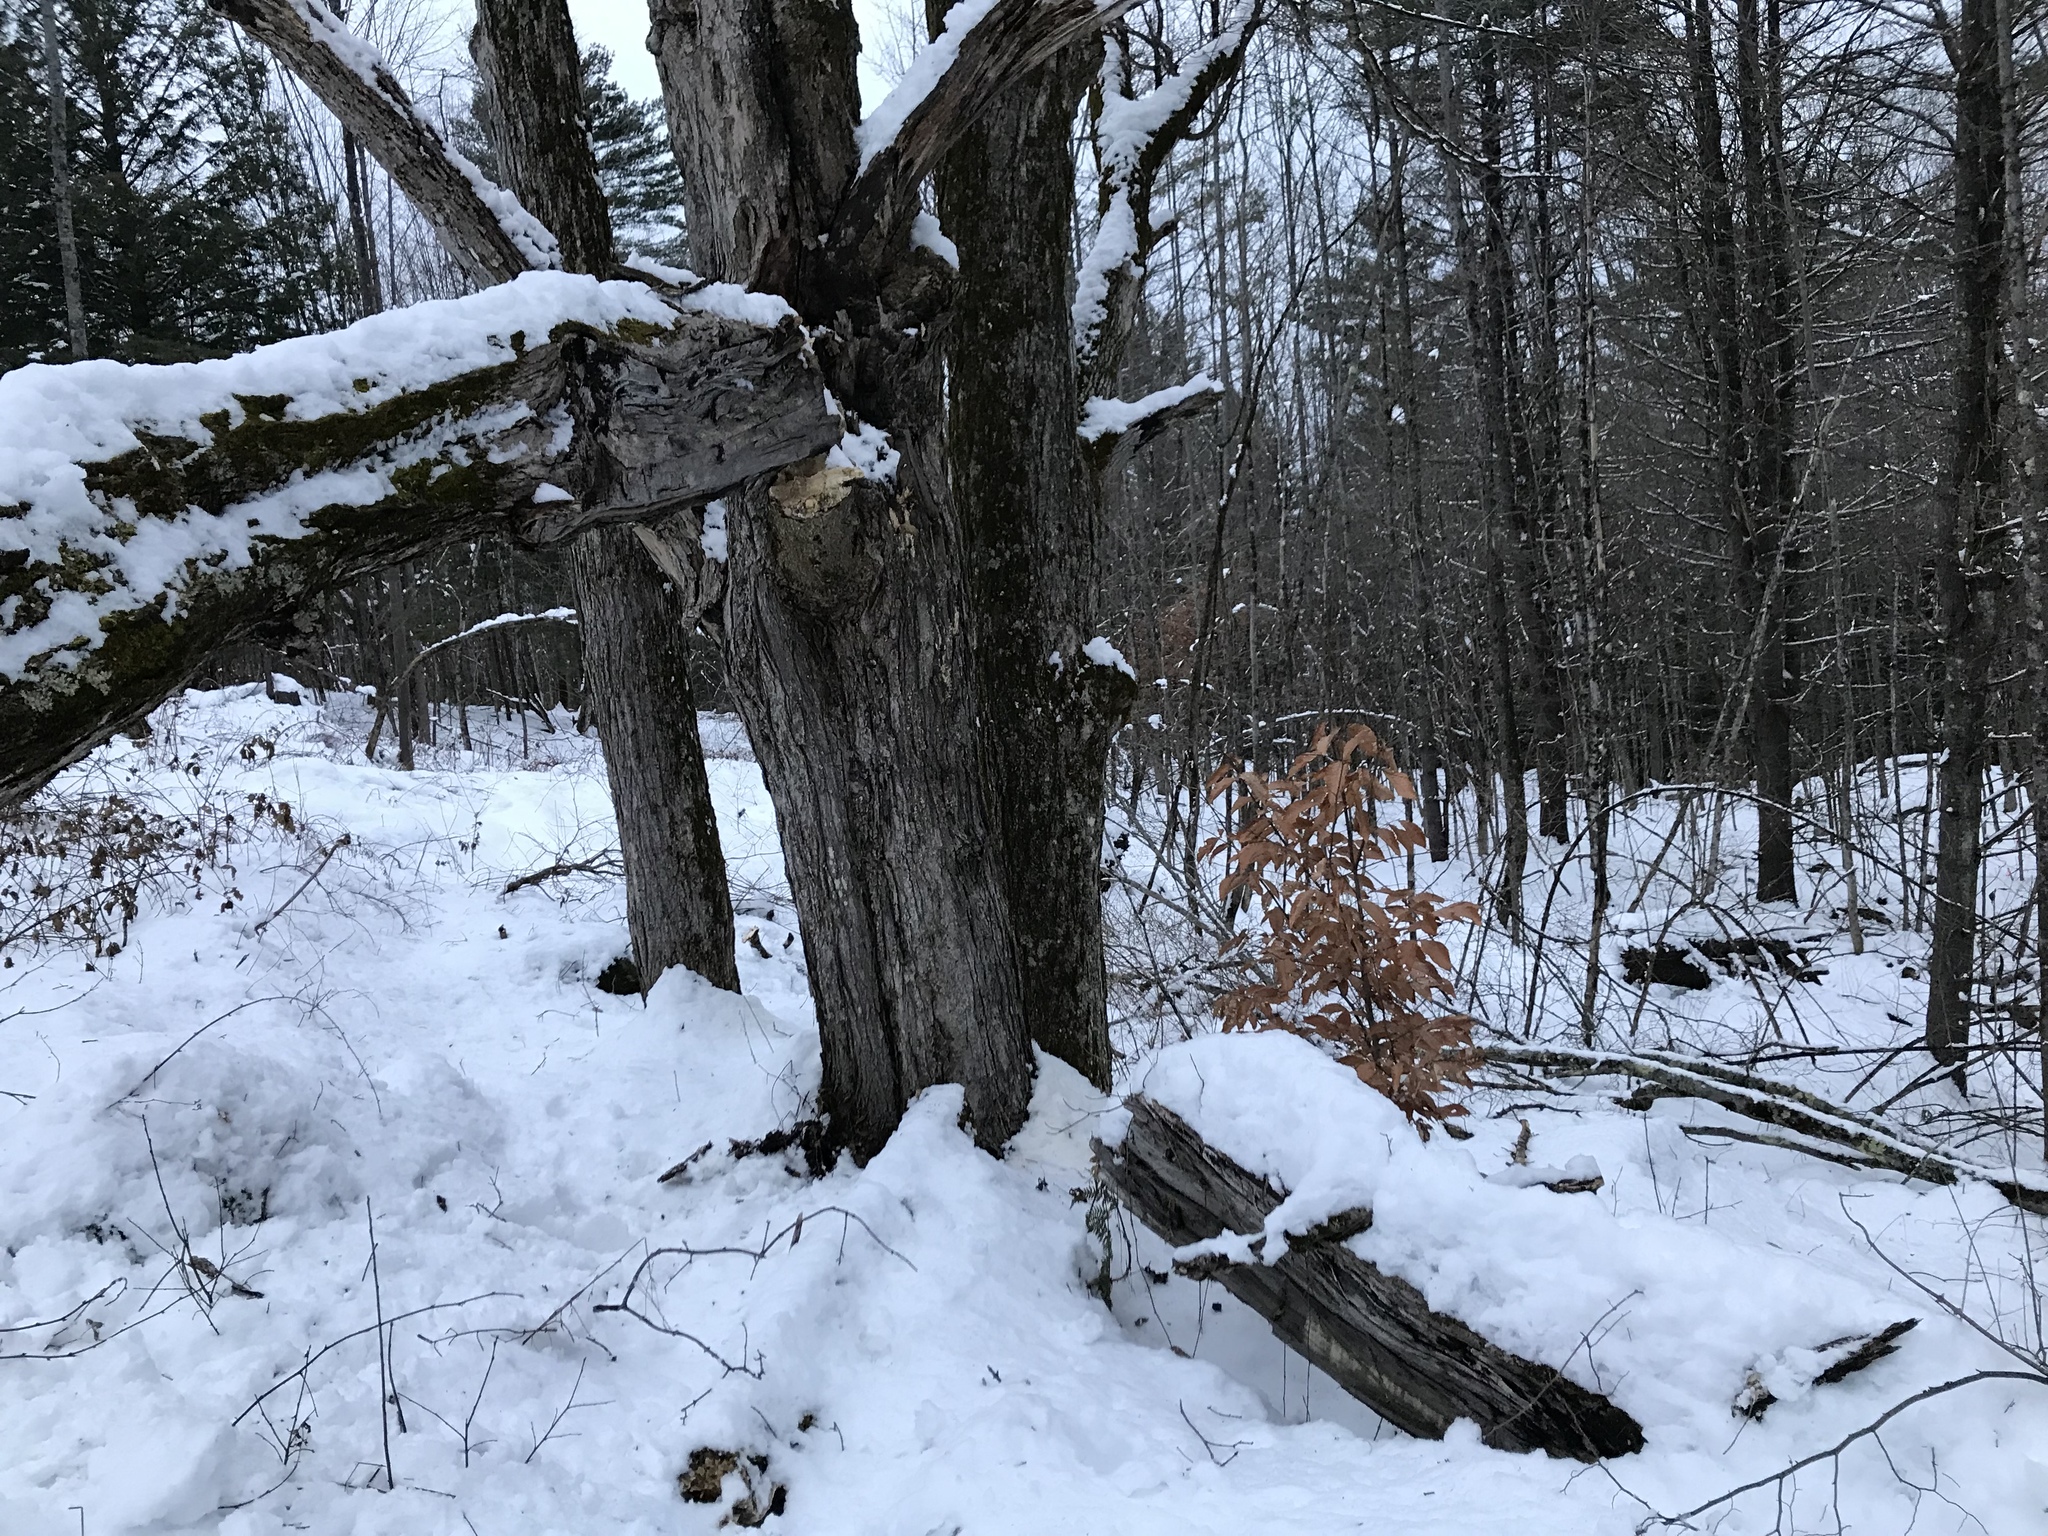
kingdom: Plantae
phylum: Tracheophyta
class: Magnoliopsida
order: Sapindales
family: Sapindaceae
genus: Acer
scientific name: Acer saccharum
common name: Sugar maple
